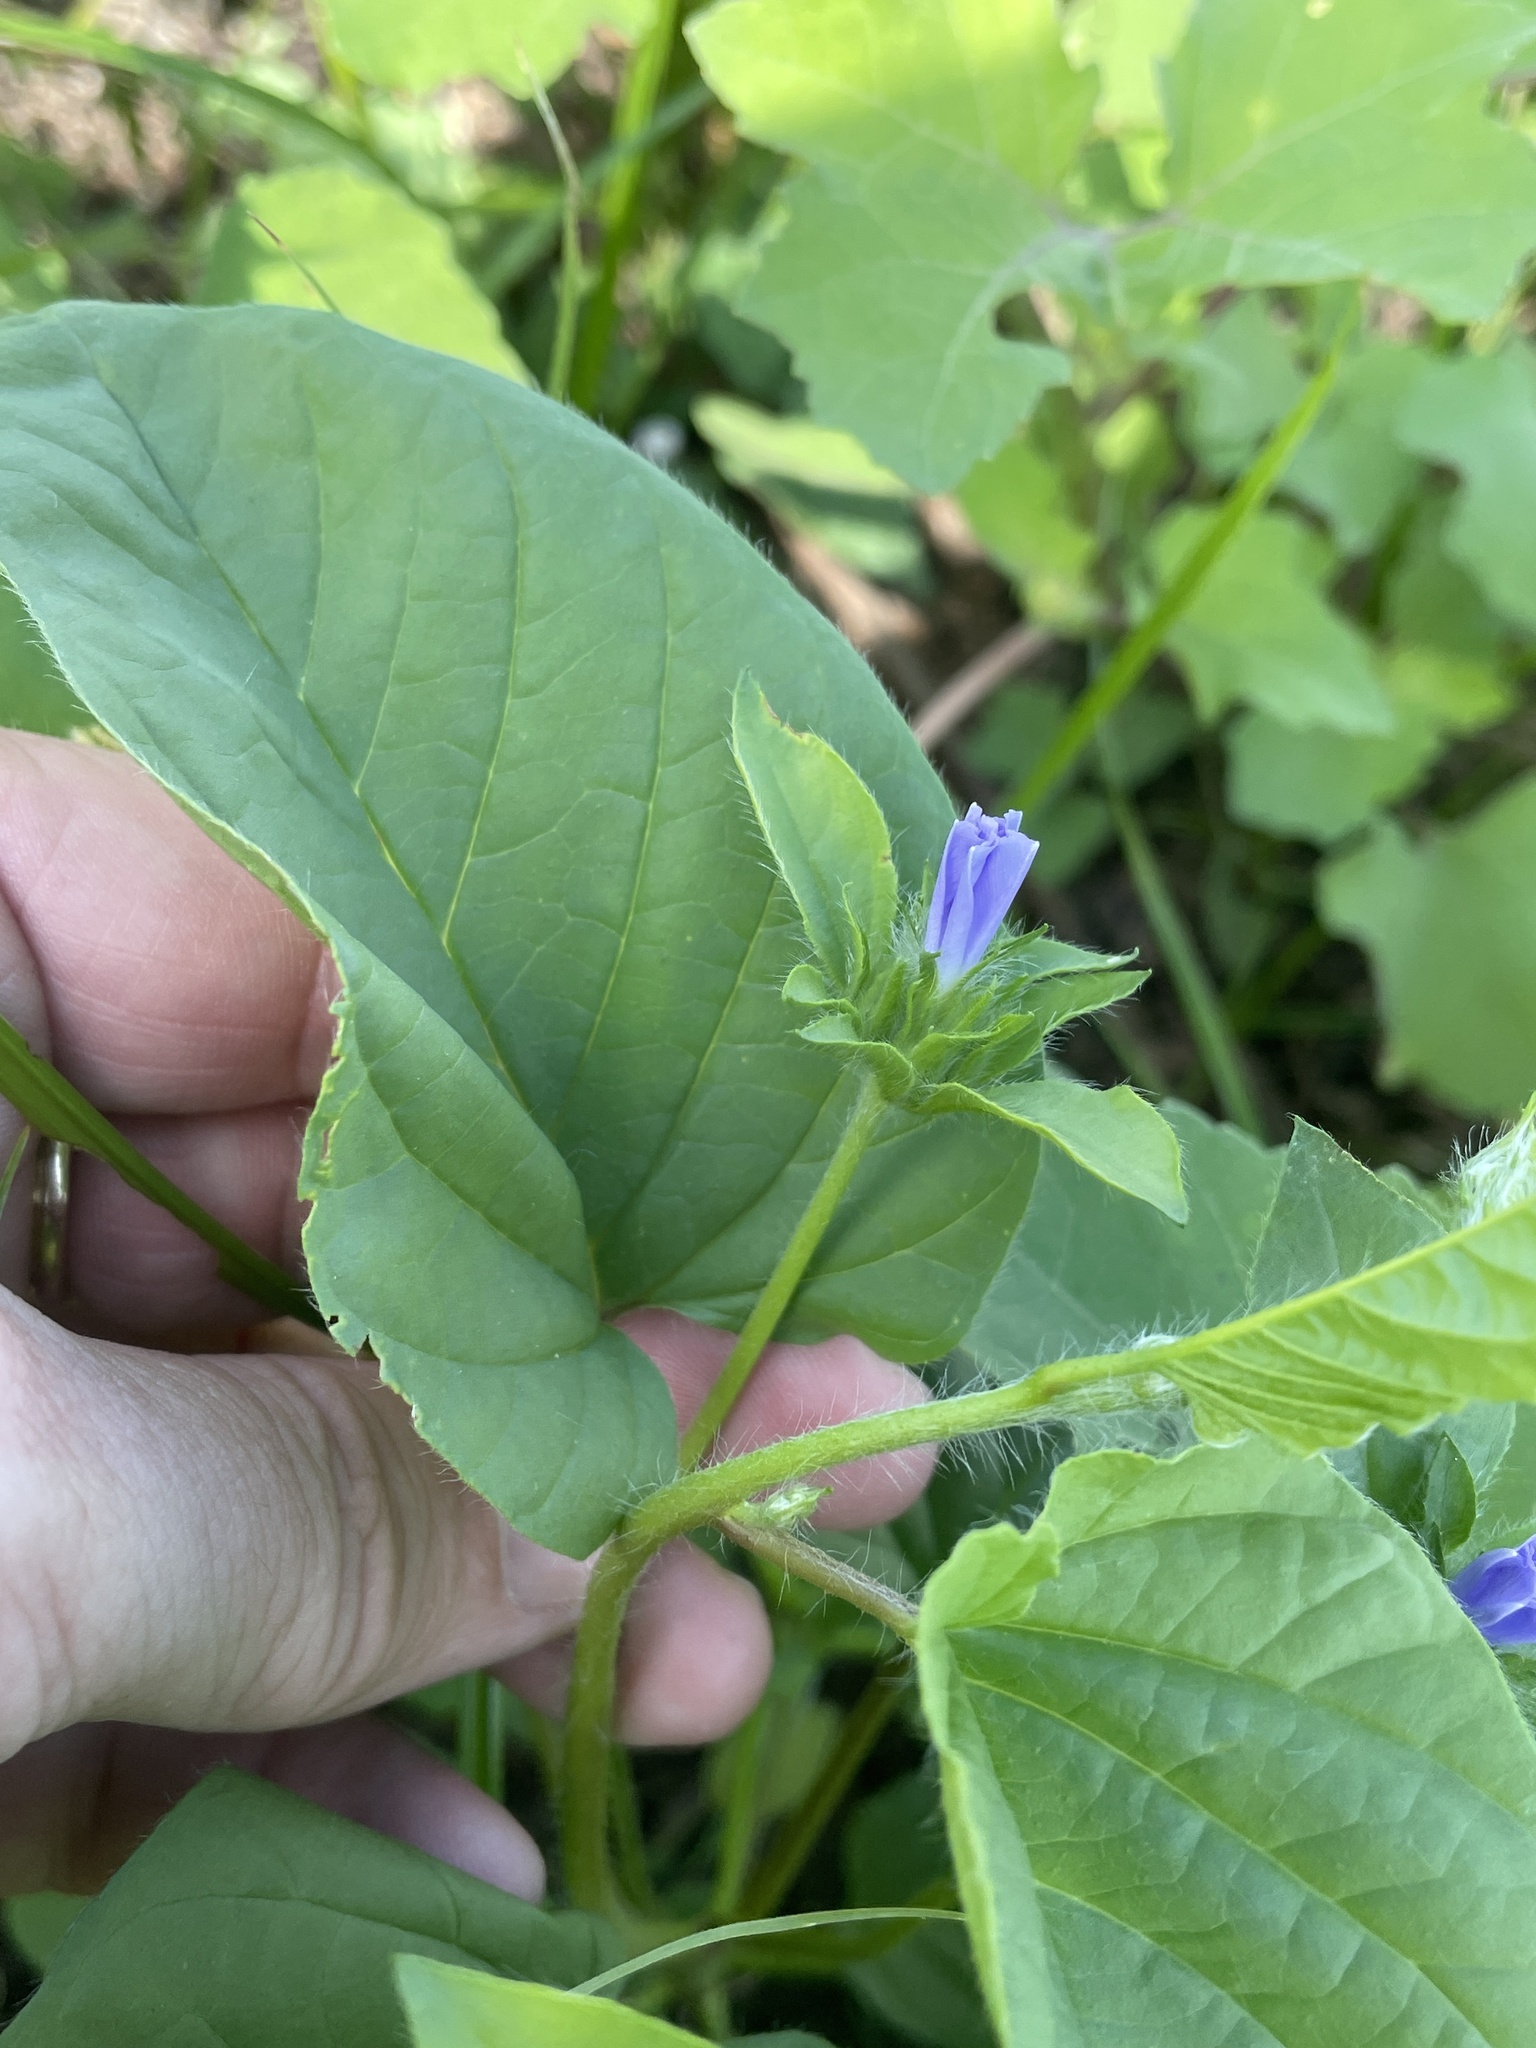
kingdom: Plantae
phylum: Tracheophyta
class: Magnoliopsida
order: Solanales
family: Convolvulaceae
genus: Jacquemontia
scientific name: Jacquemontia tamnifolia
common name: Hairy clustervine
